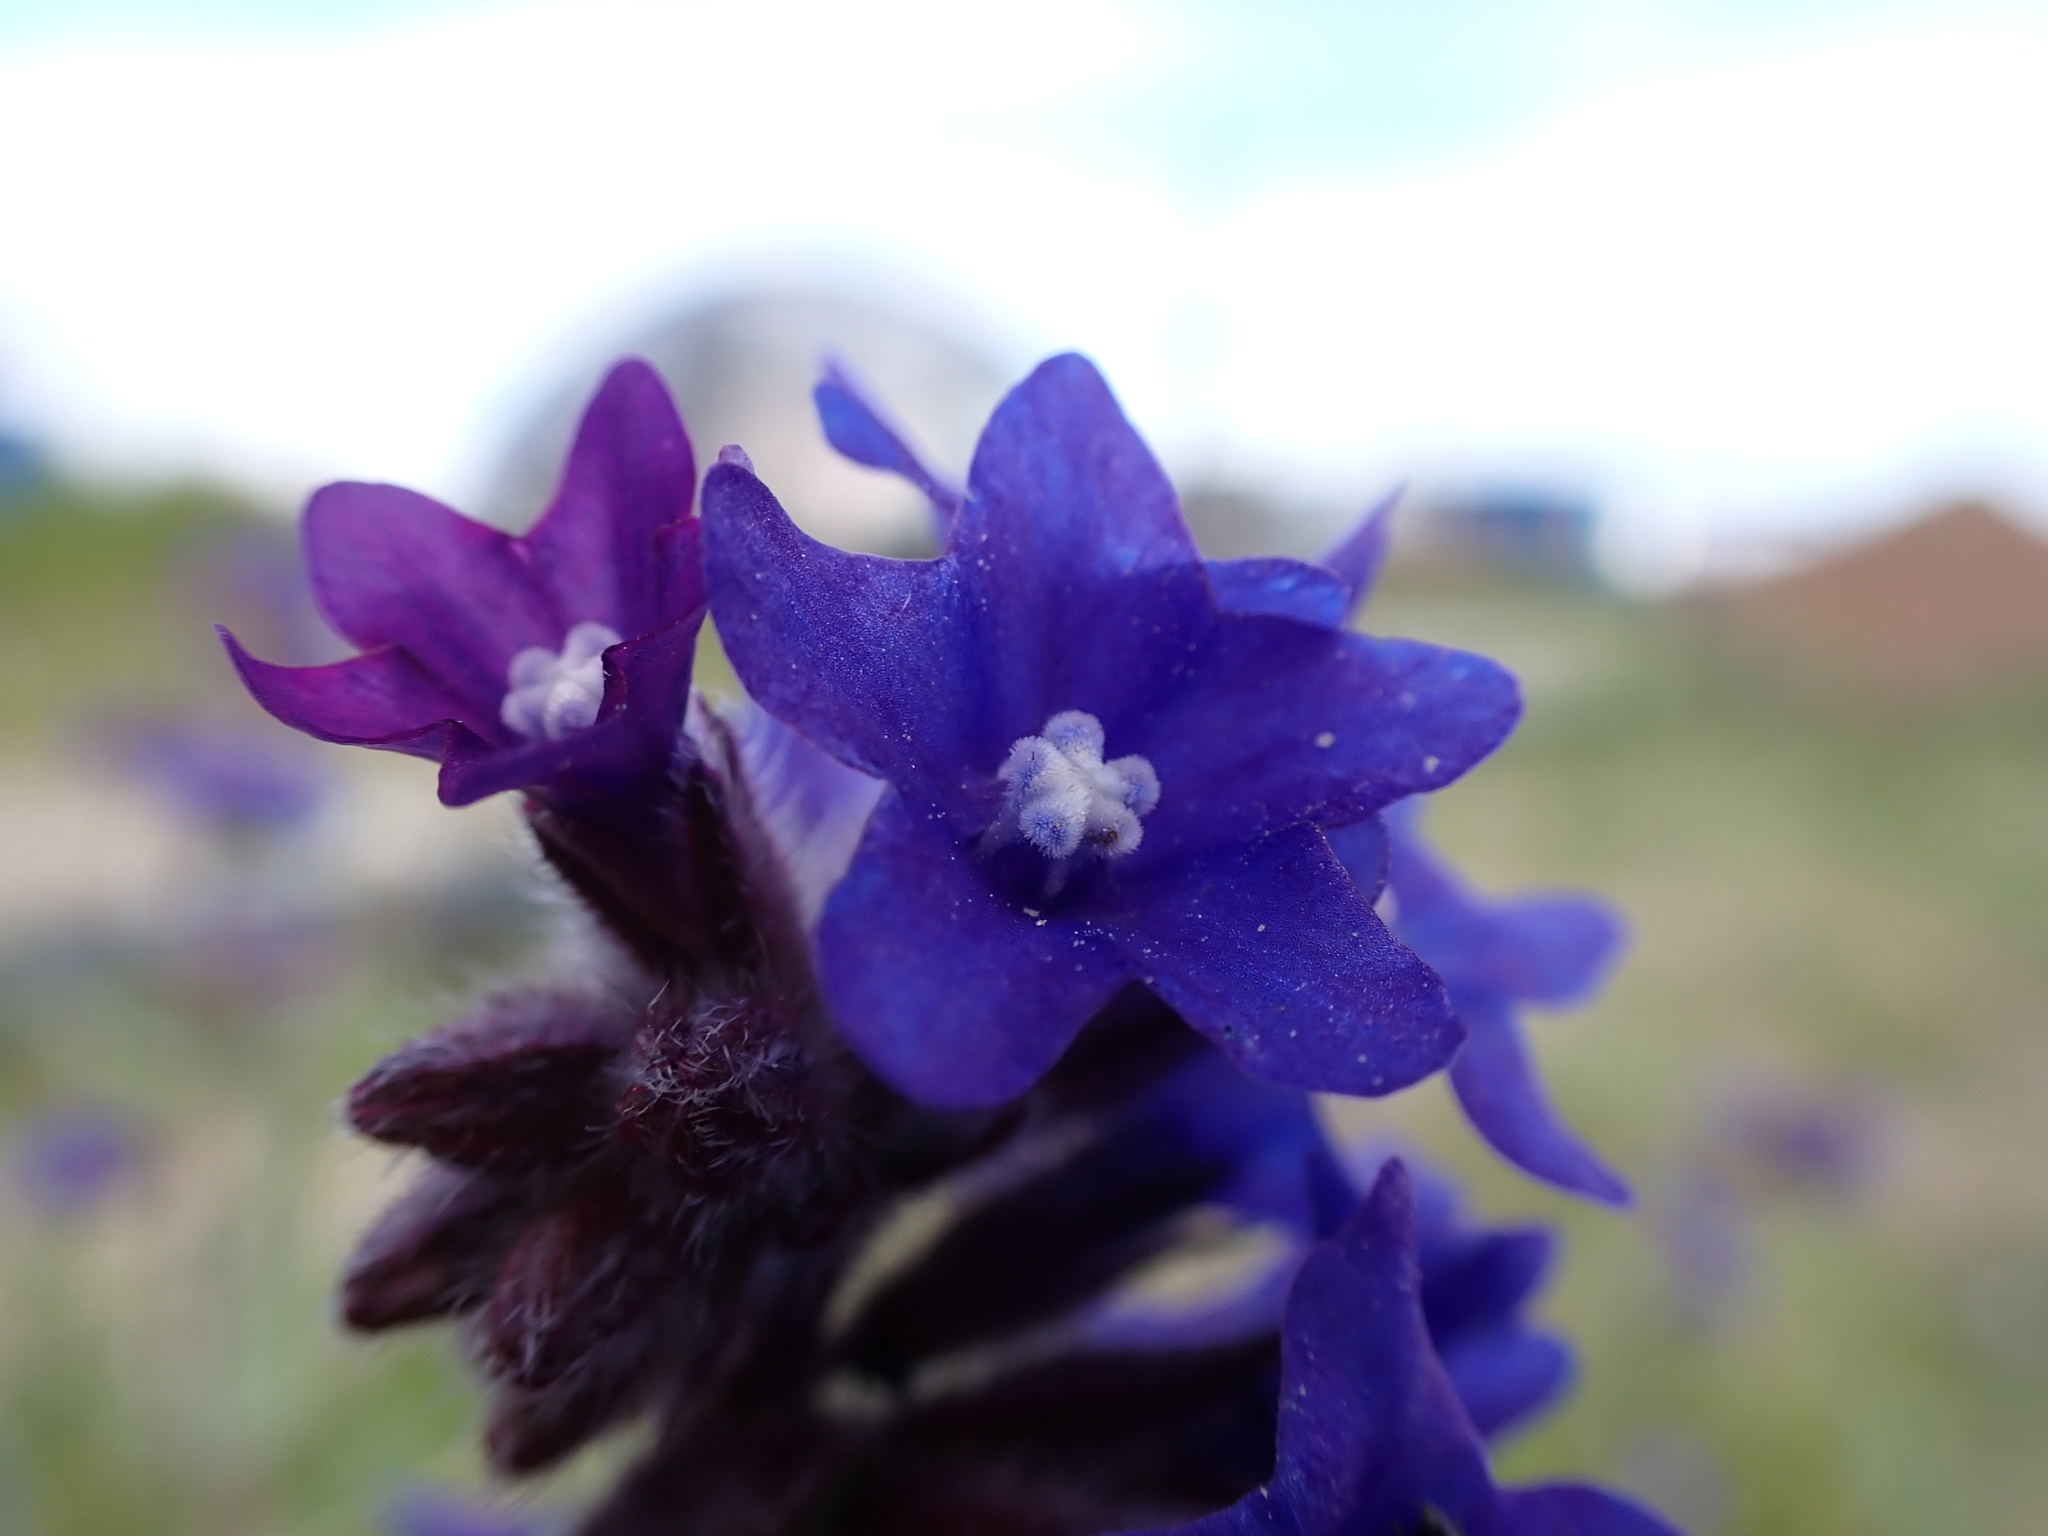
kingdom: Plantae
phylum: Tracheophyta
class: Magnoliopsida
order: Boraginales
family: Boraginaceae
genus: Anchusa
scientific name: Anchusa officinalis
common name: Alkanet
